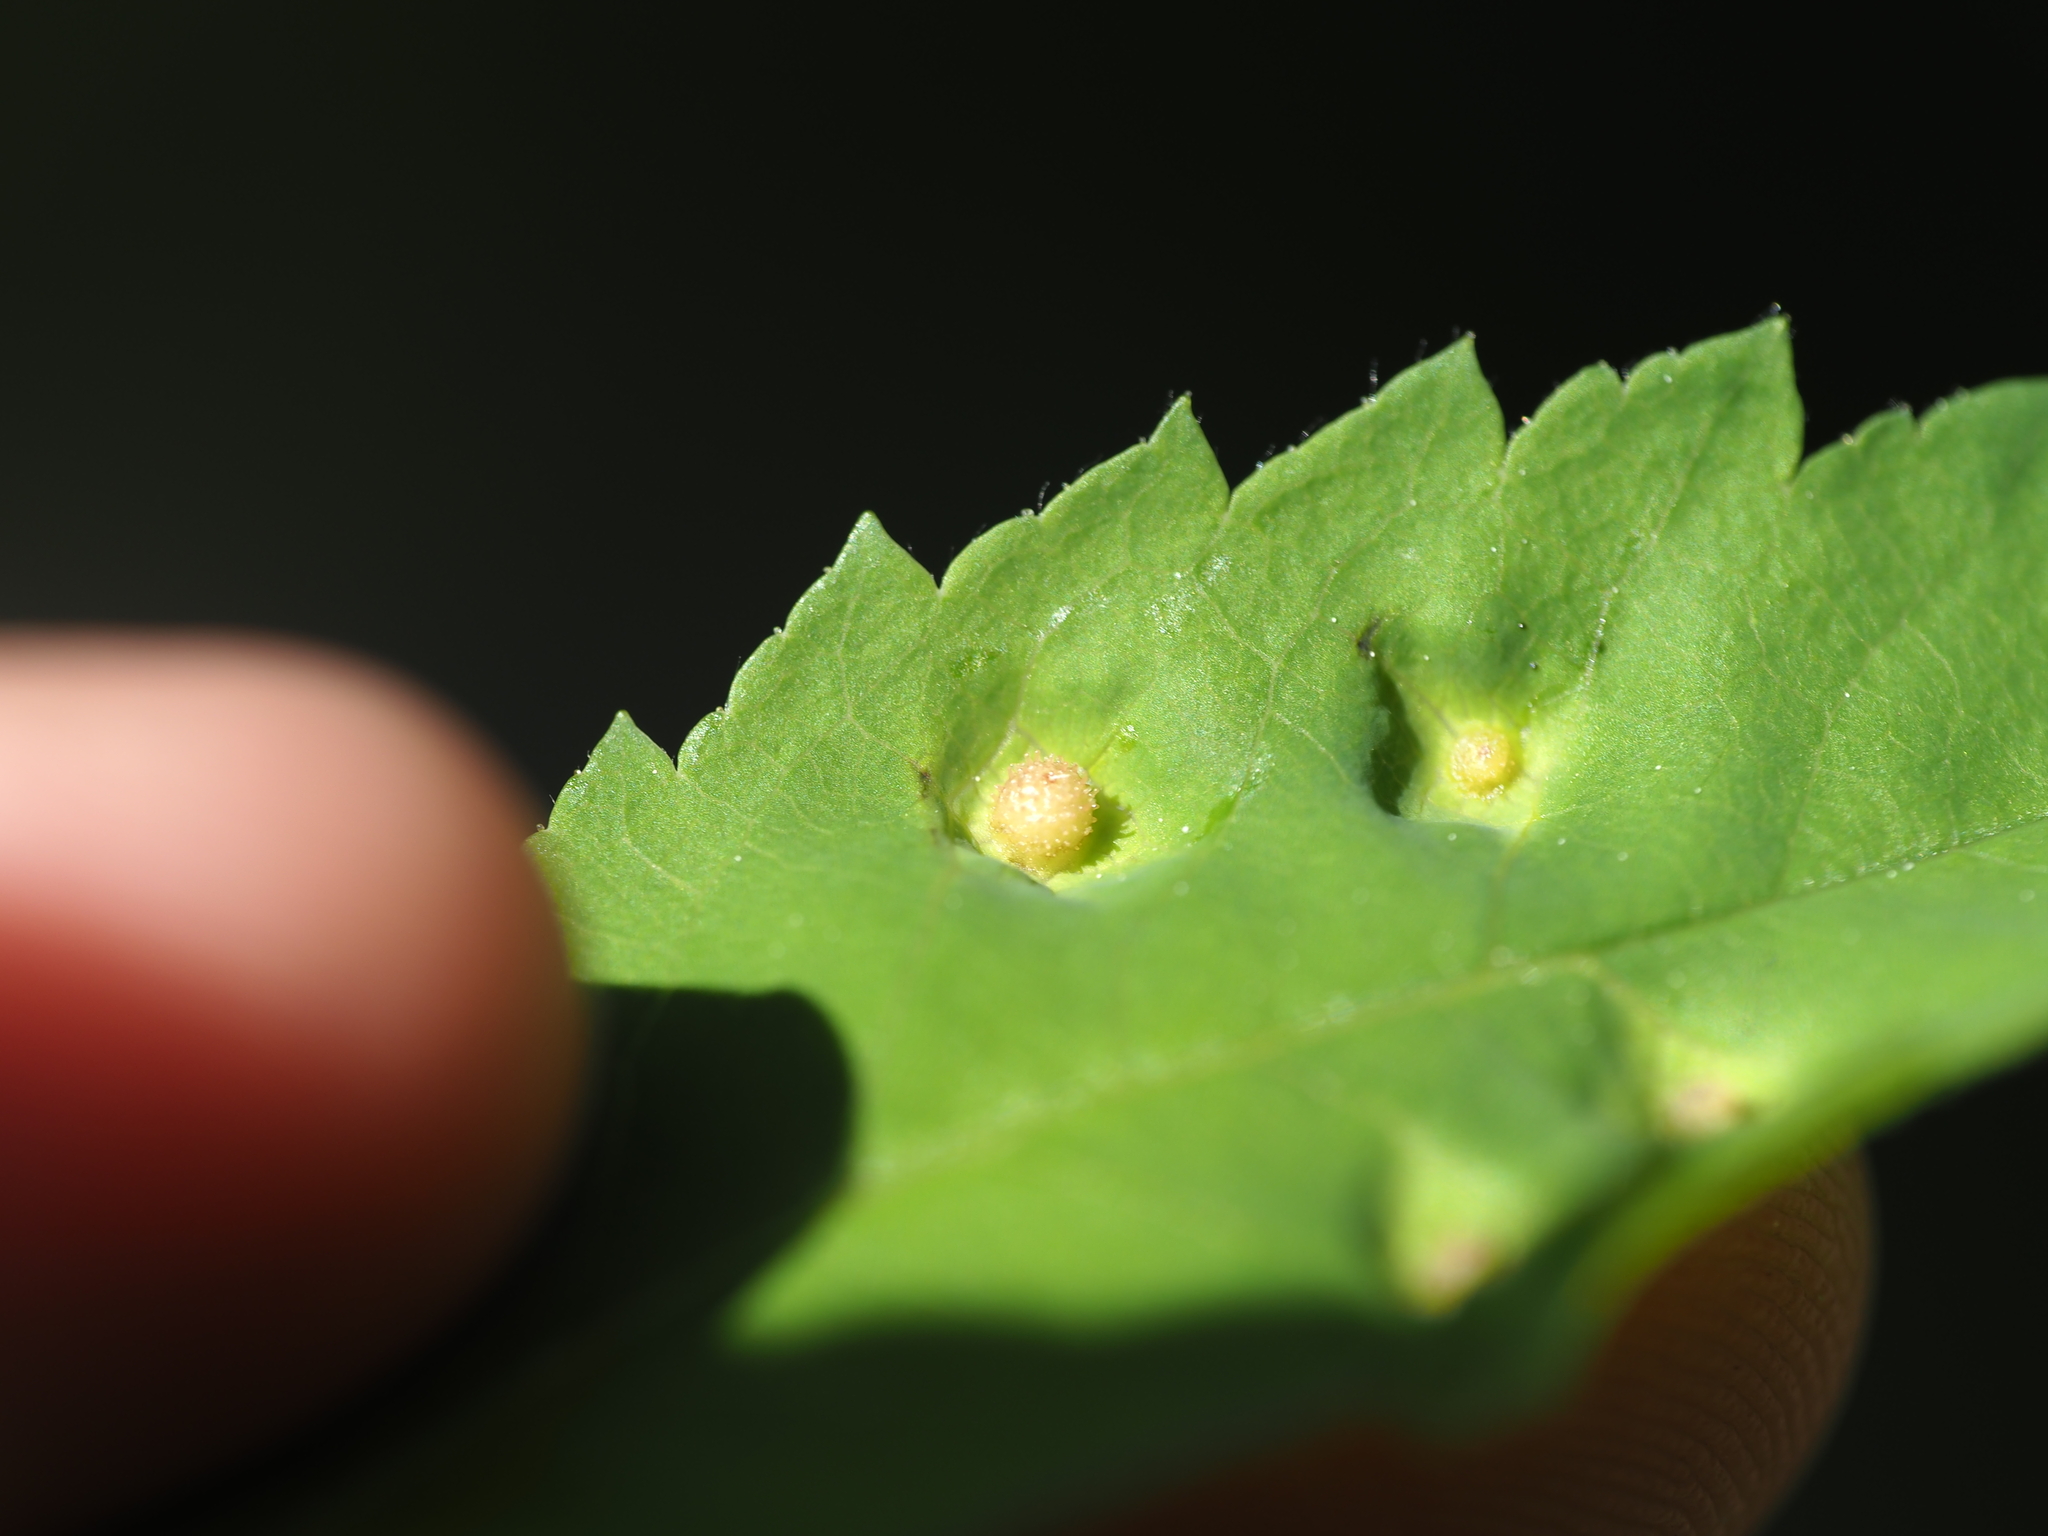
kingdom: Animalia
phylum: Arthropoda
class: Insecta
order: Hymenoptera
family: Cynipidae
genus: Diplolepis
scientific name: Diplolepis polita
